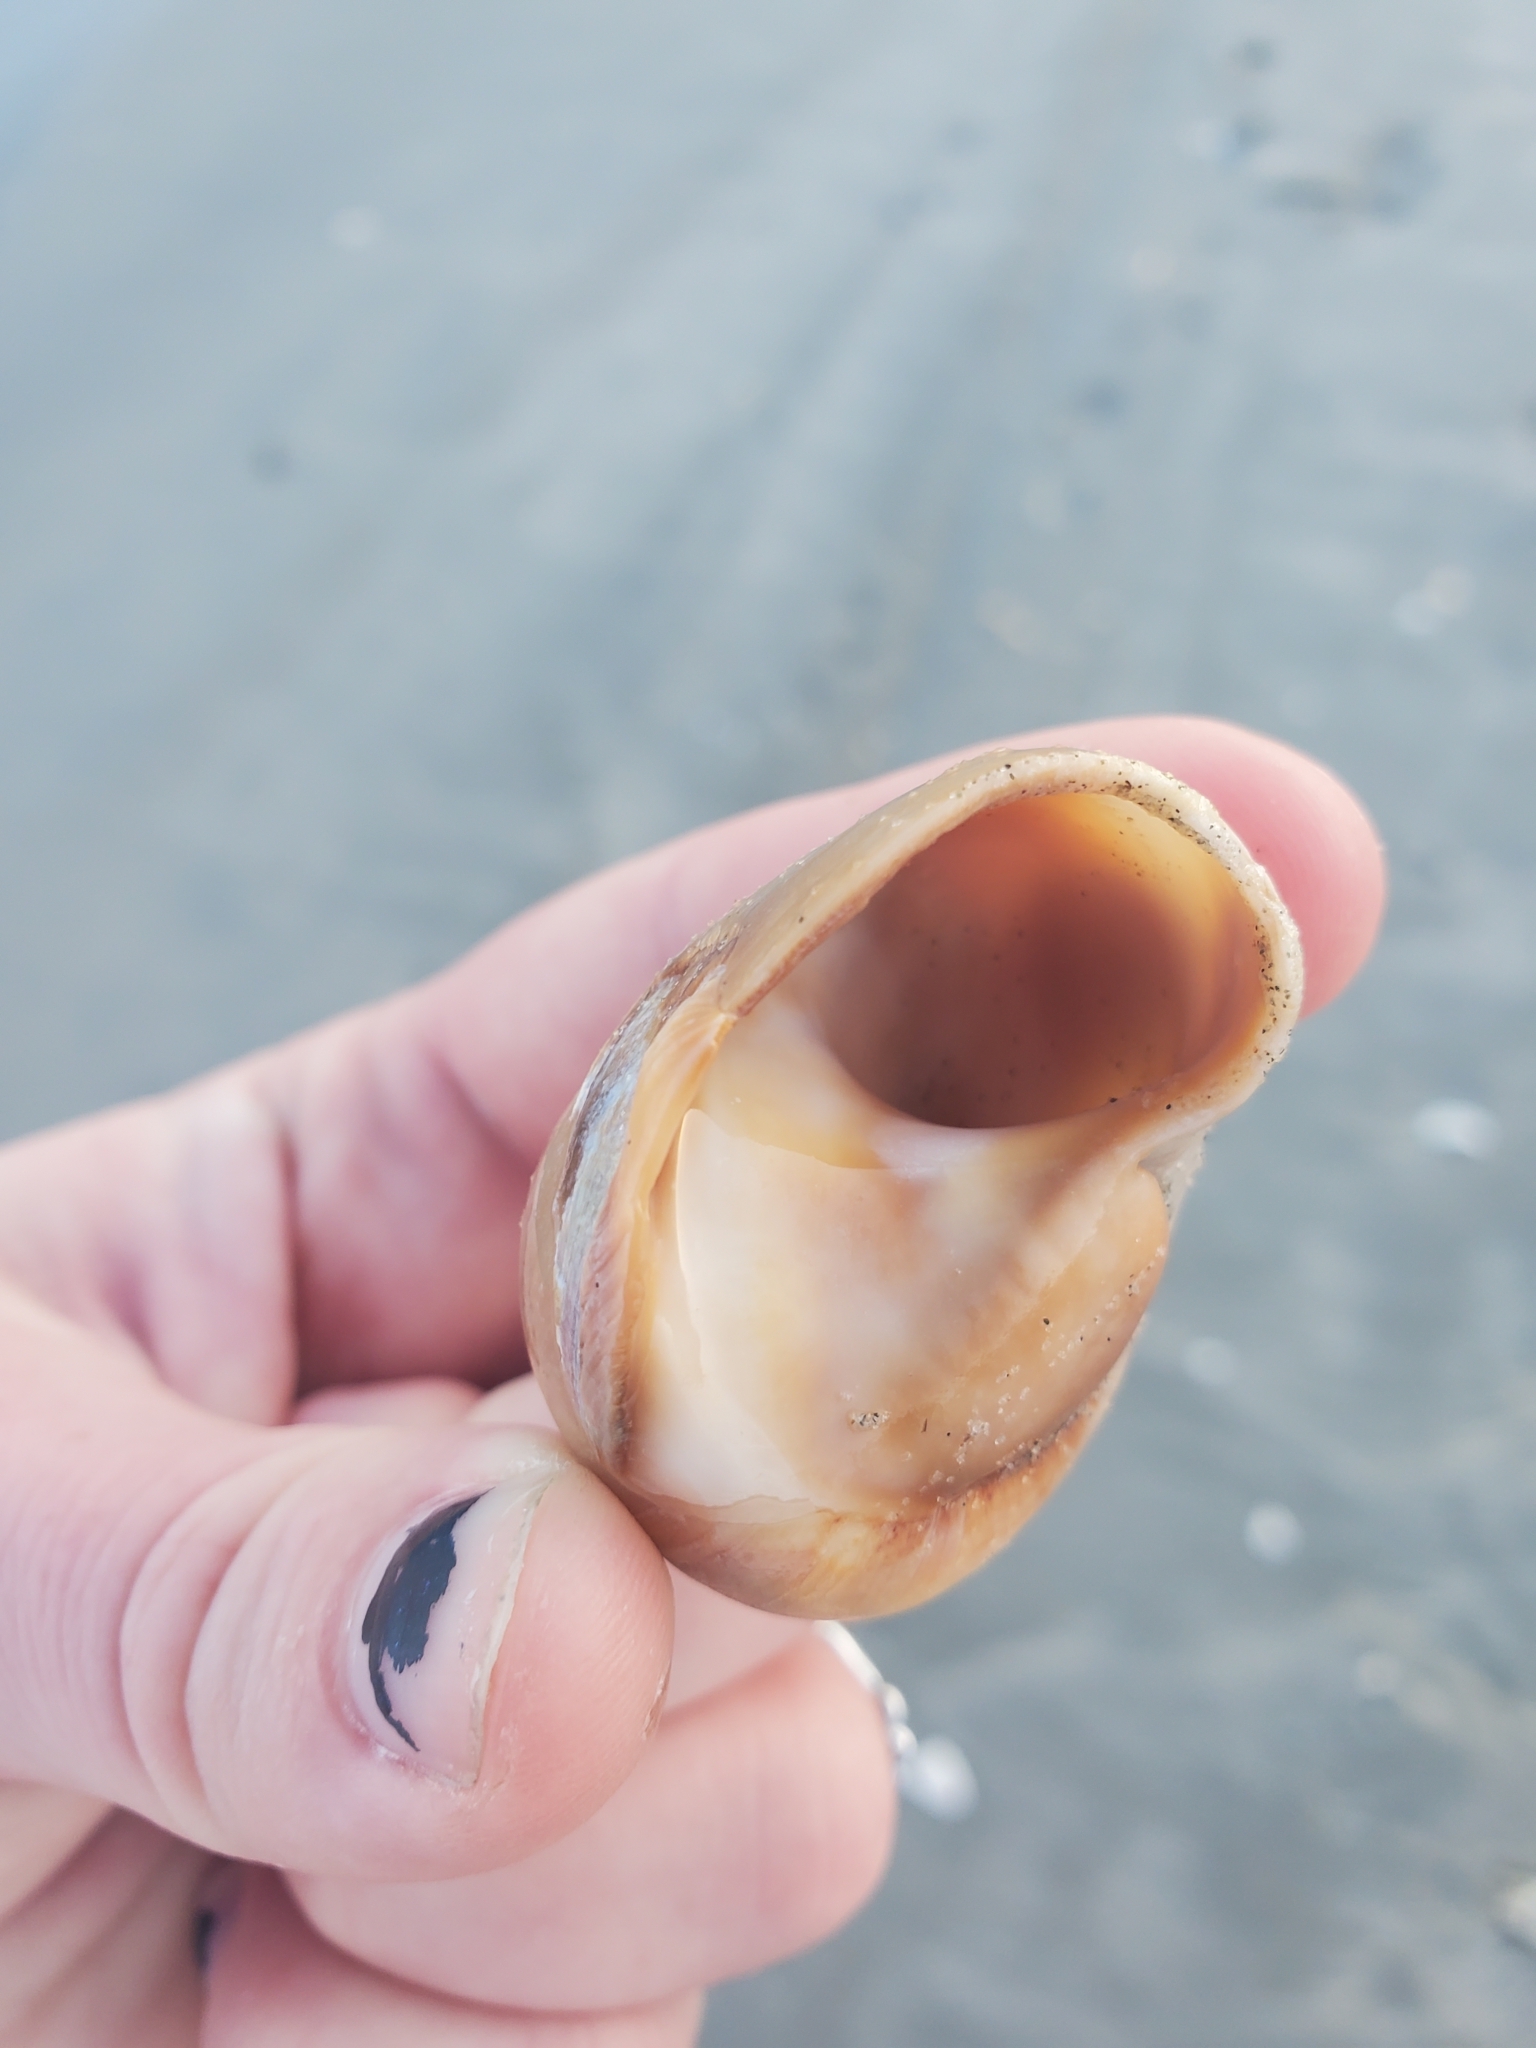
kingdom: Animalia
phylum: Mollusca
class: Gastropoda
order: Littorinimorpha
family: Naticidae
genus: Neverita
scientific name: Neverita duplicata
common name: Lobed moonsnail
